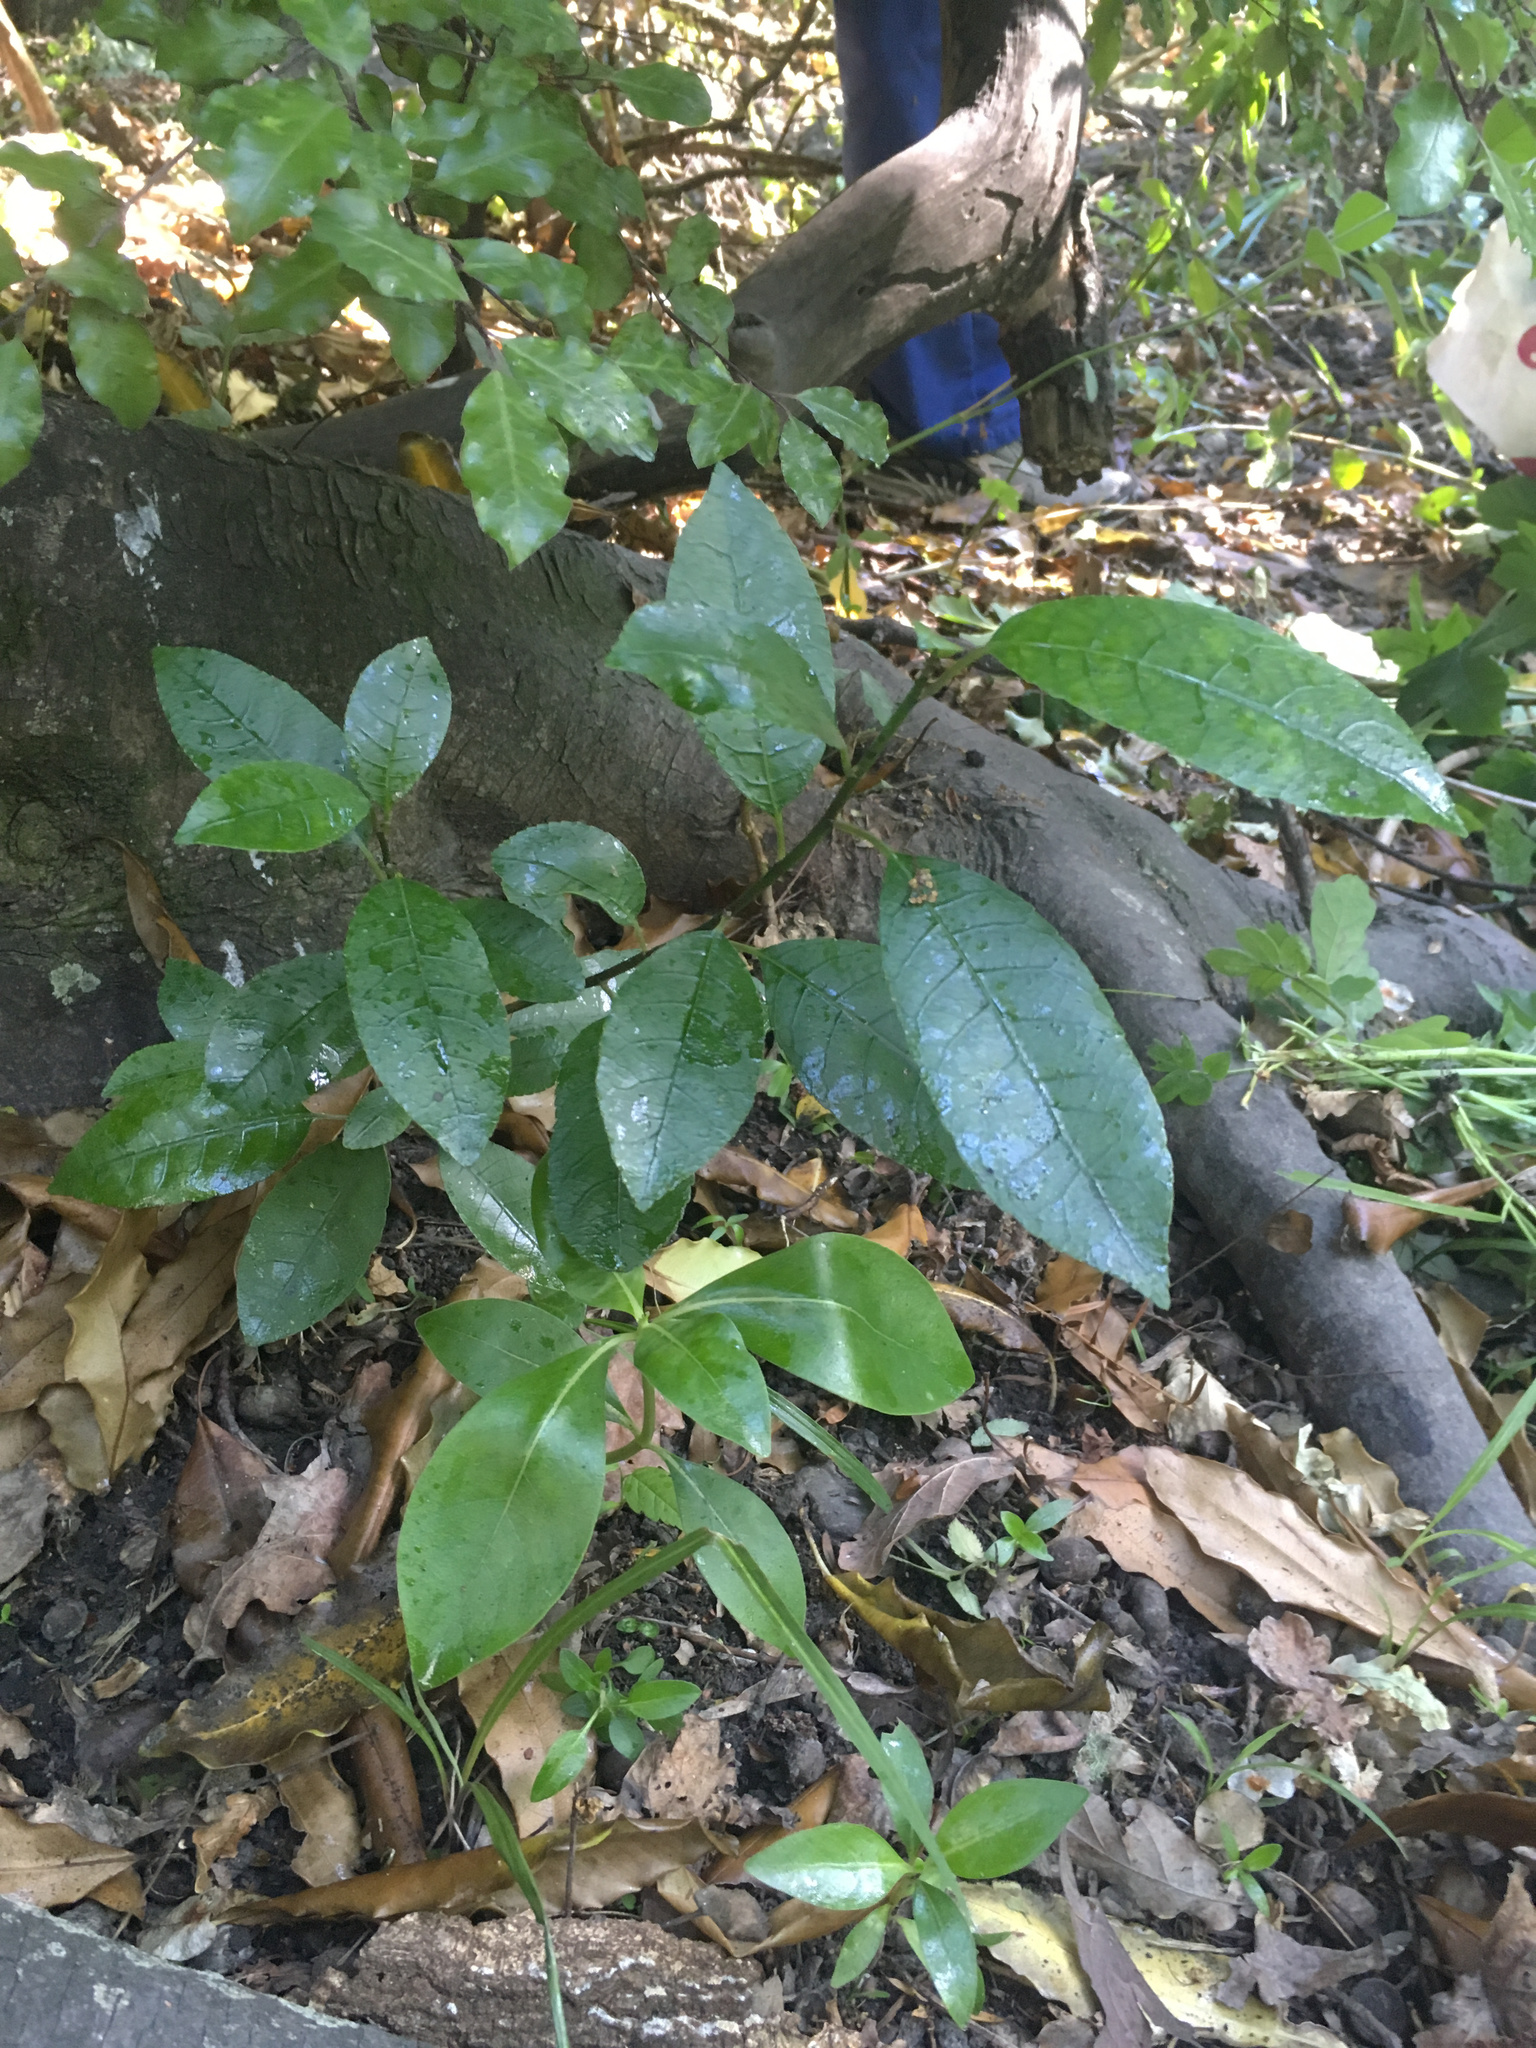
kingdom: Plantae
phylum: Tracheophyta
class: Magnoliopsida
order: Malpighiales
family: Violaceae
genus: Melicytus
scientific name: Melicytus ramiflorus
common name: Mahoe
